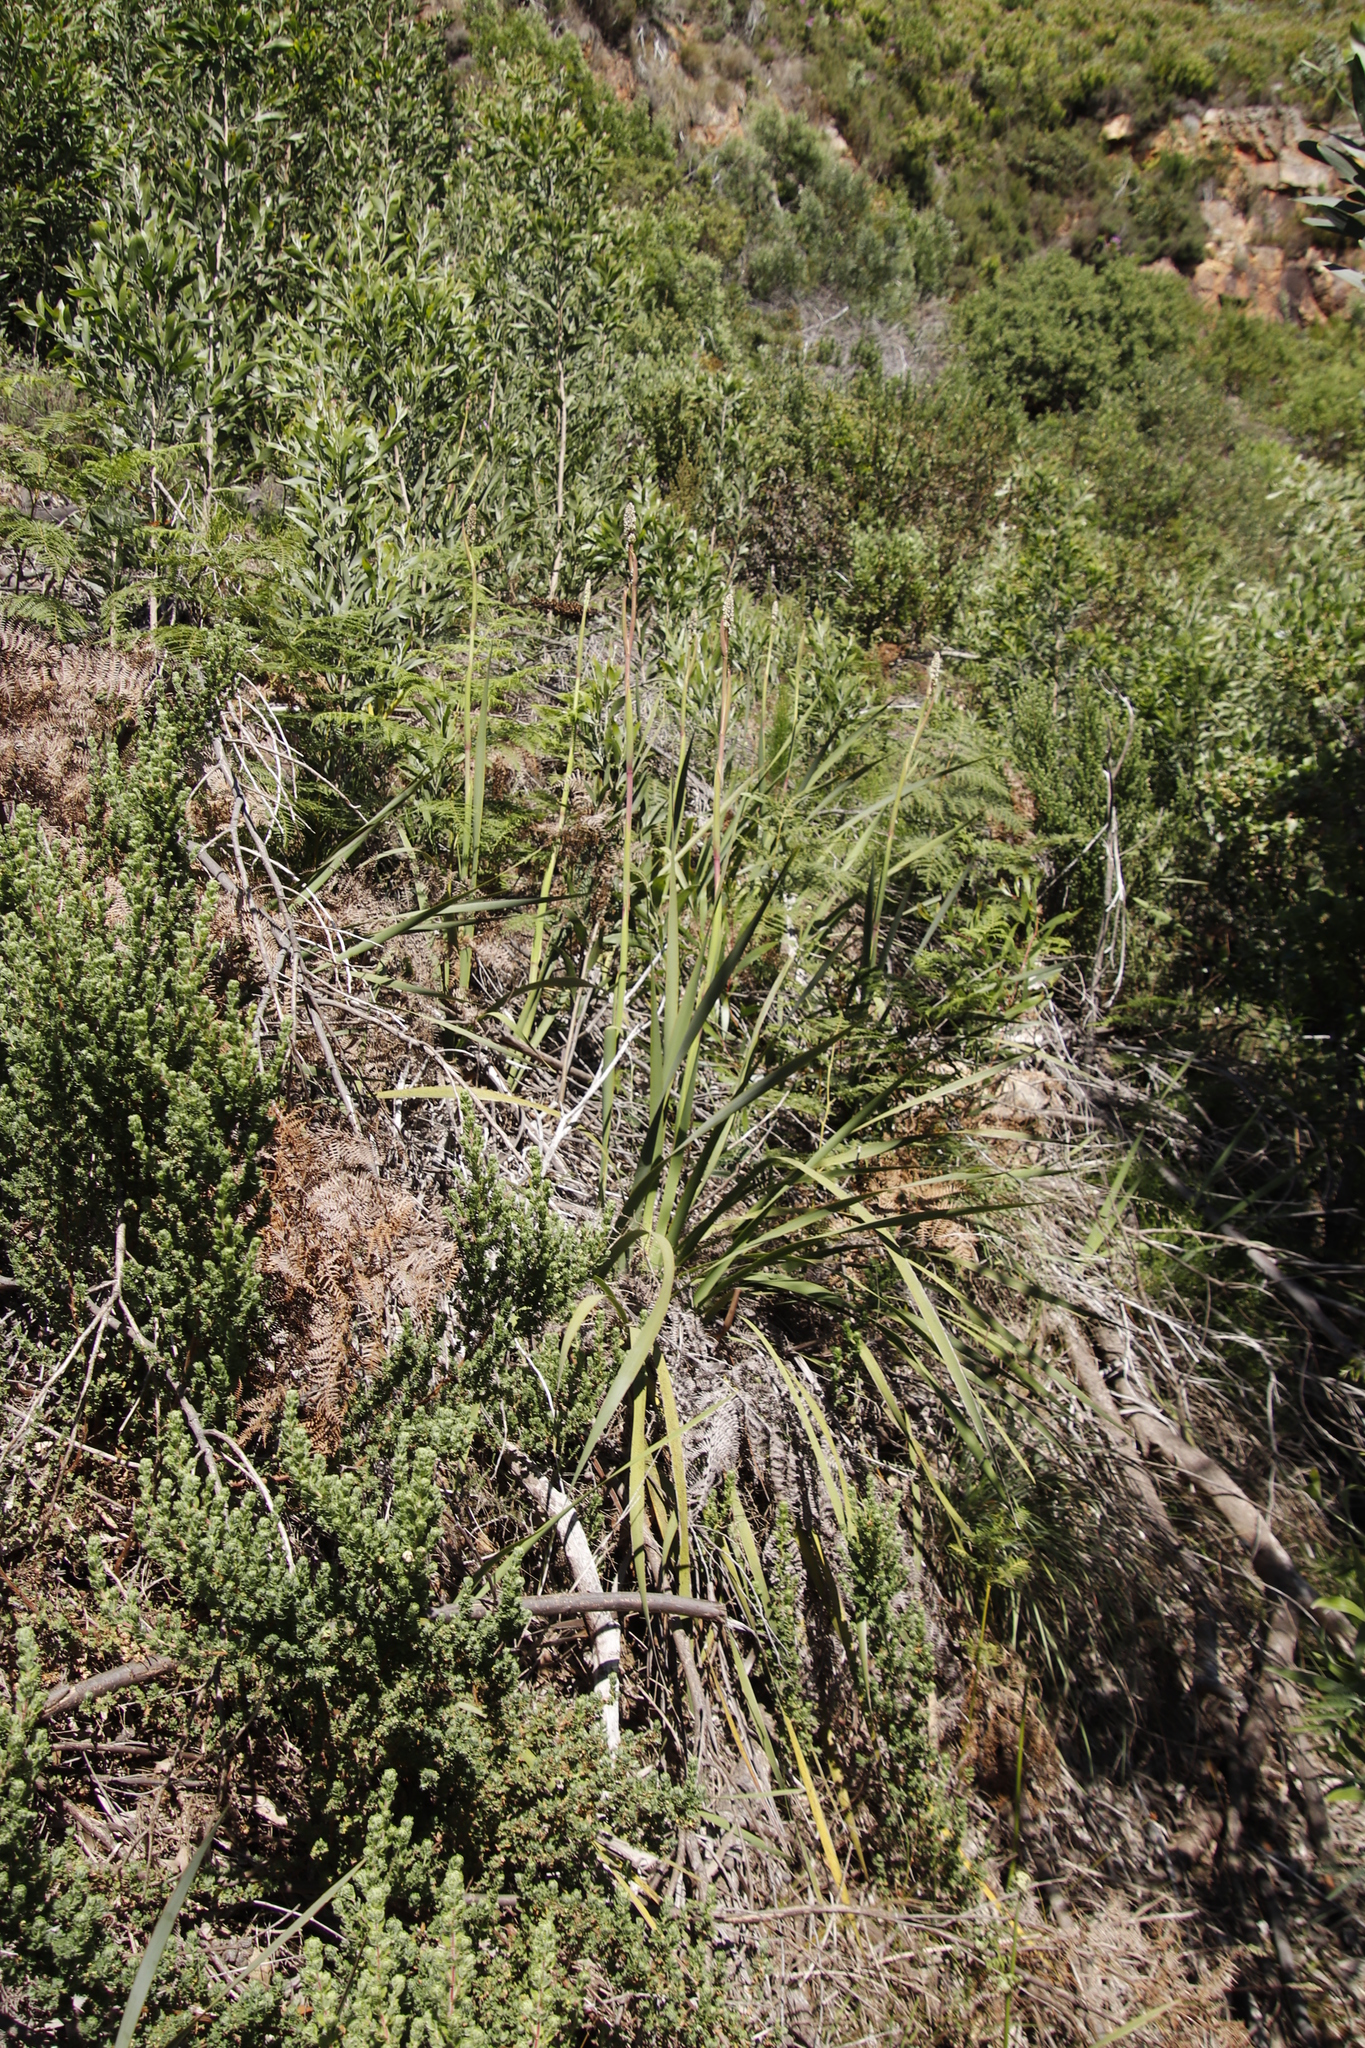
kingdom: Plantae
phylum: Tracheophyta
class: Liliopsida
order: Asparagales
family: Iridaceae
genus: Aristea
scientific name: Aristea capitata
